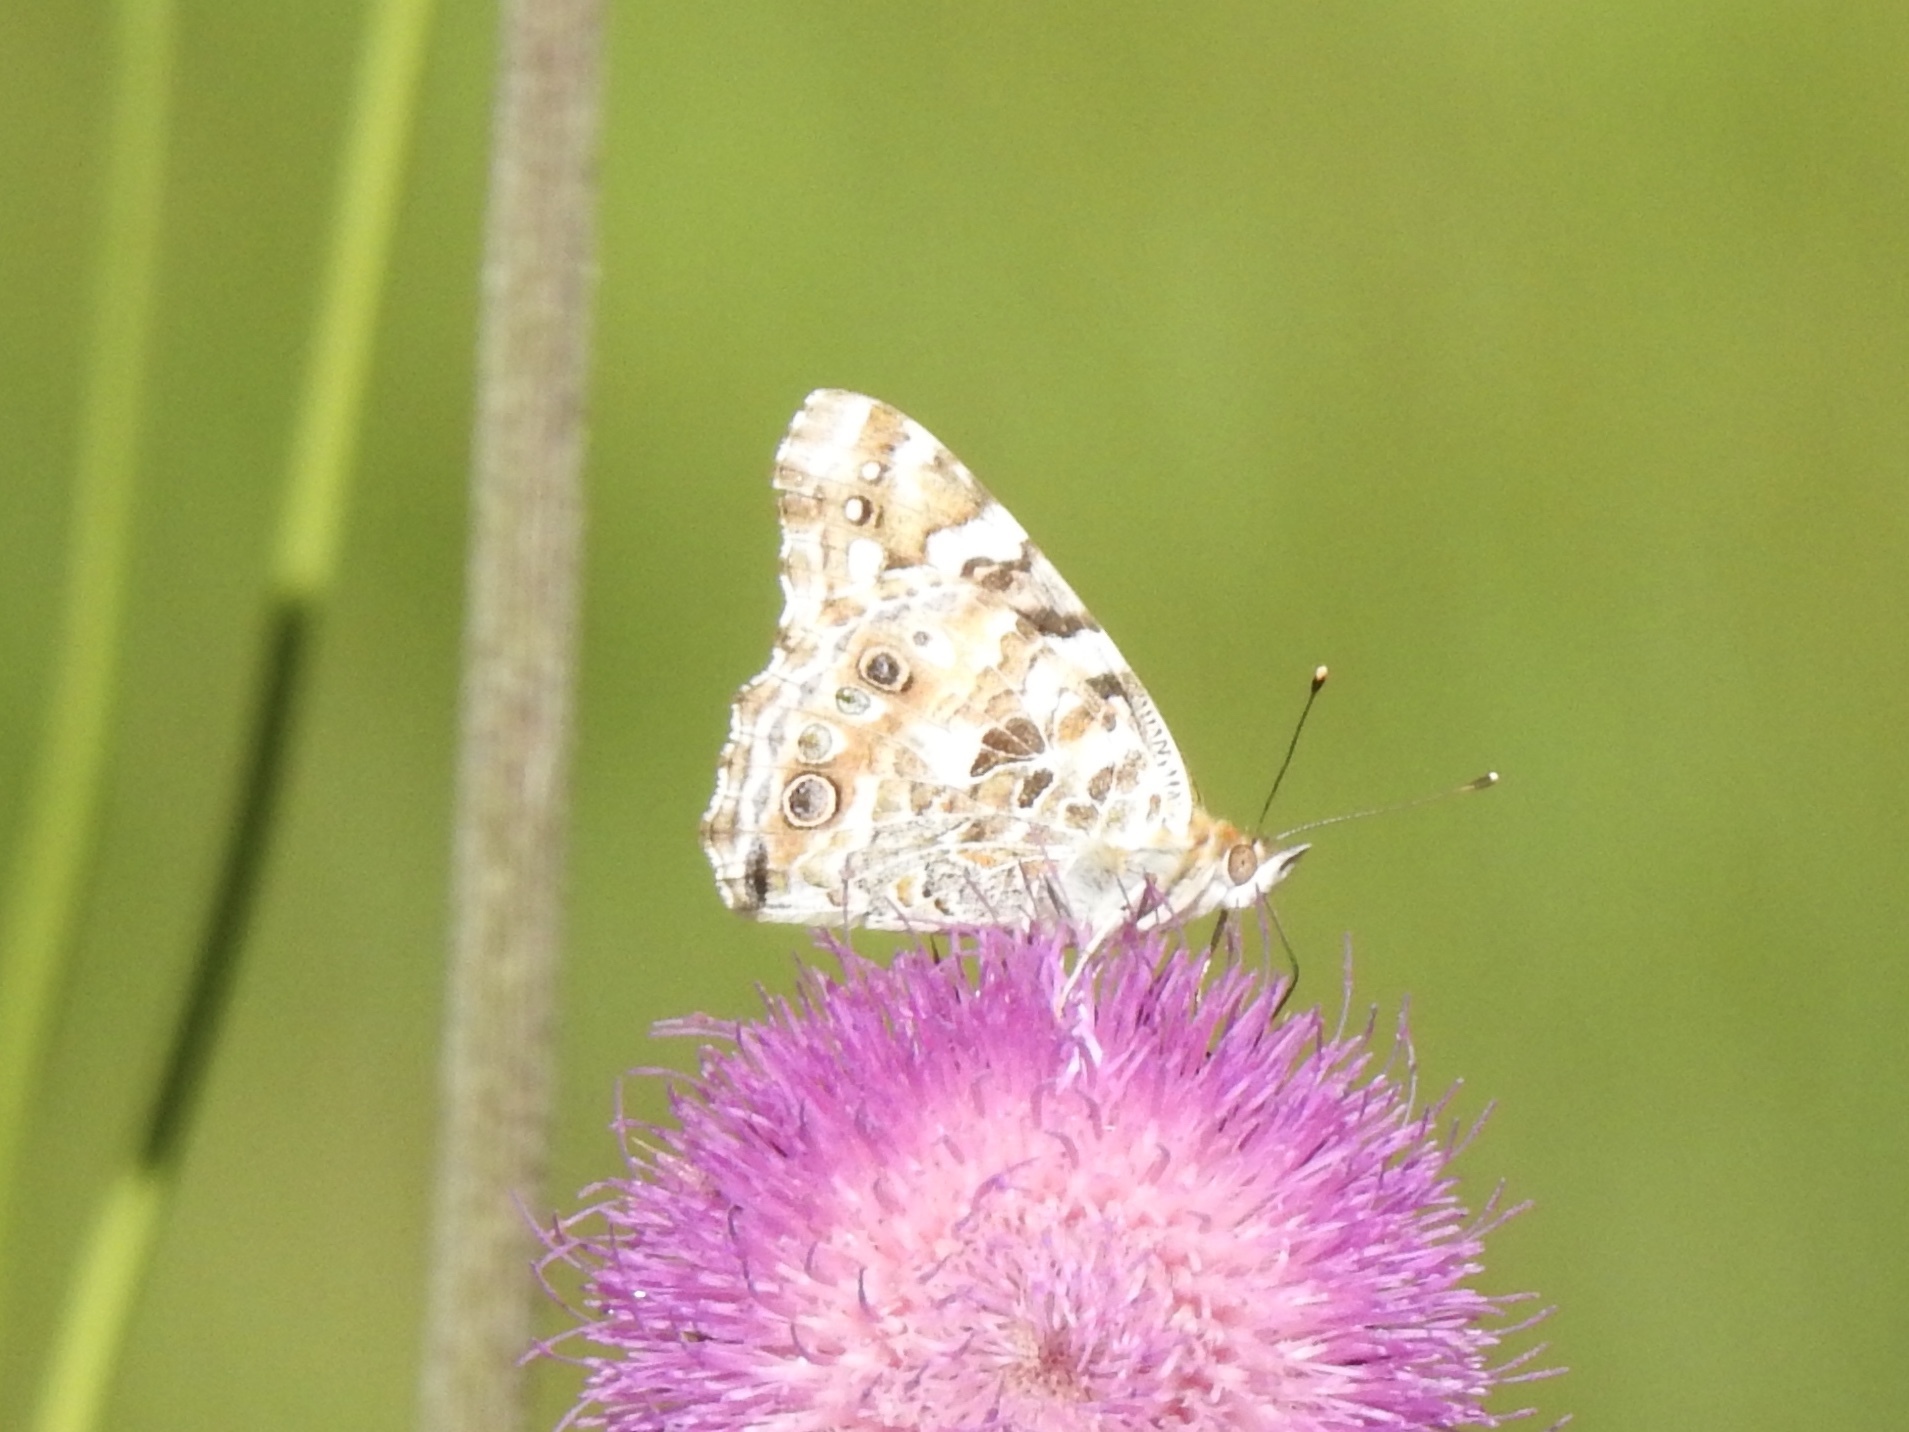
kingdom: Animalia
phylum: Arthropoda
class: Insecta
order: Lepidoptera
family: Nymphalidae
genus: Vanessa
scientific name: Vanessa cardui
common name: Painted lady
